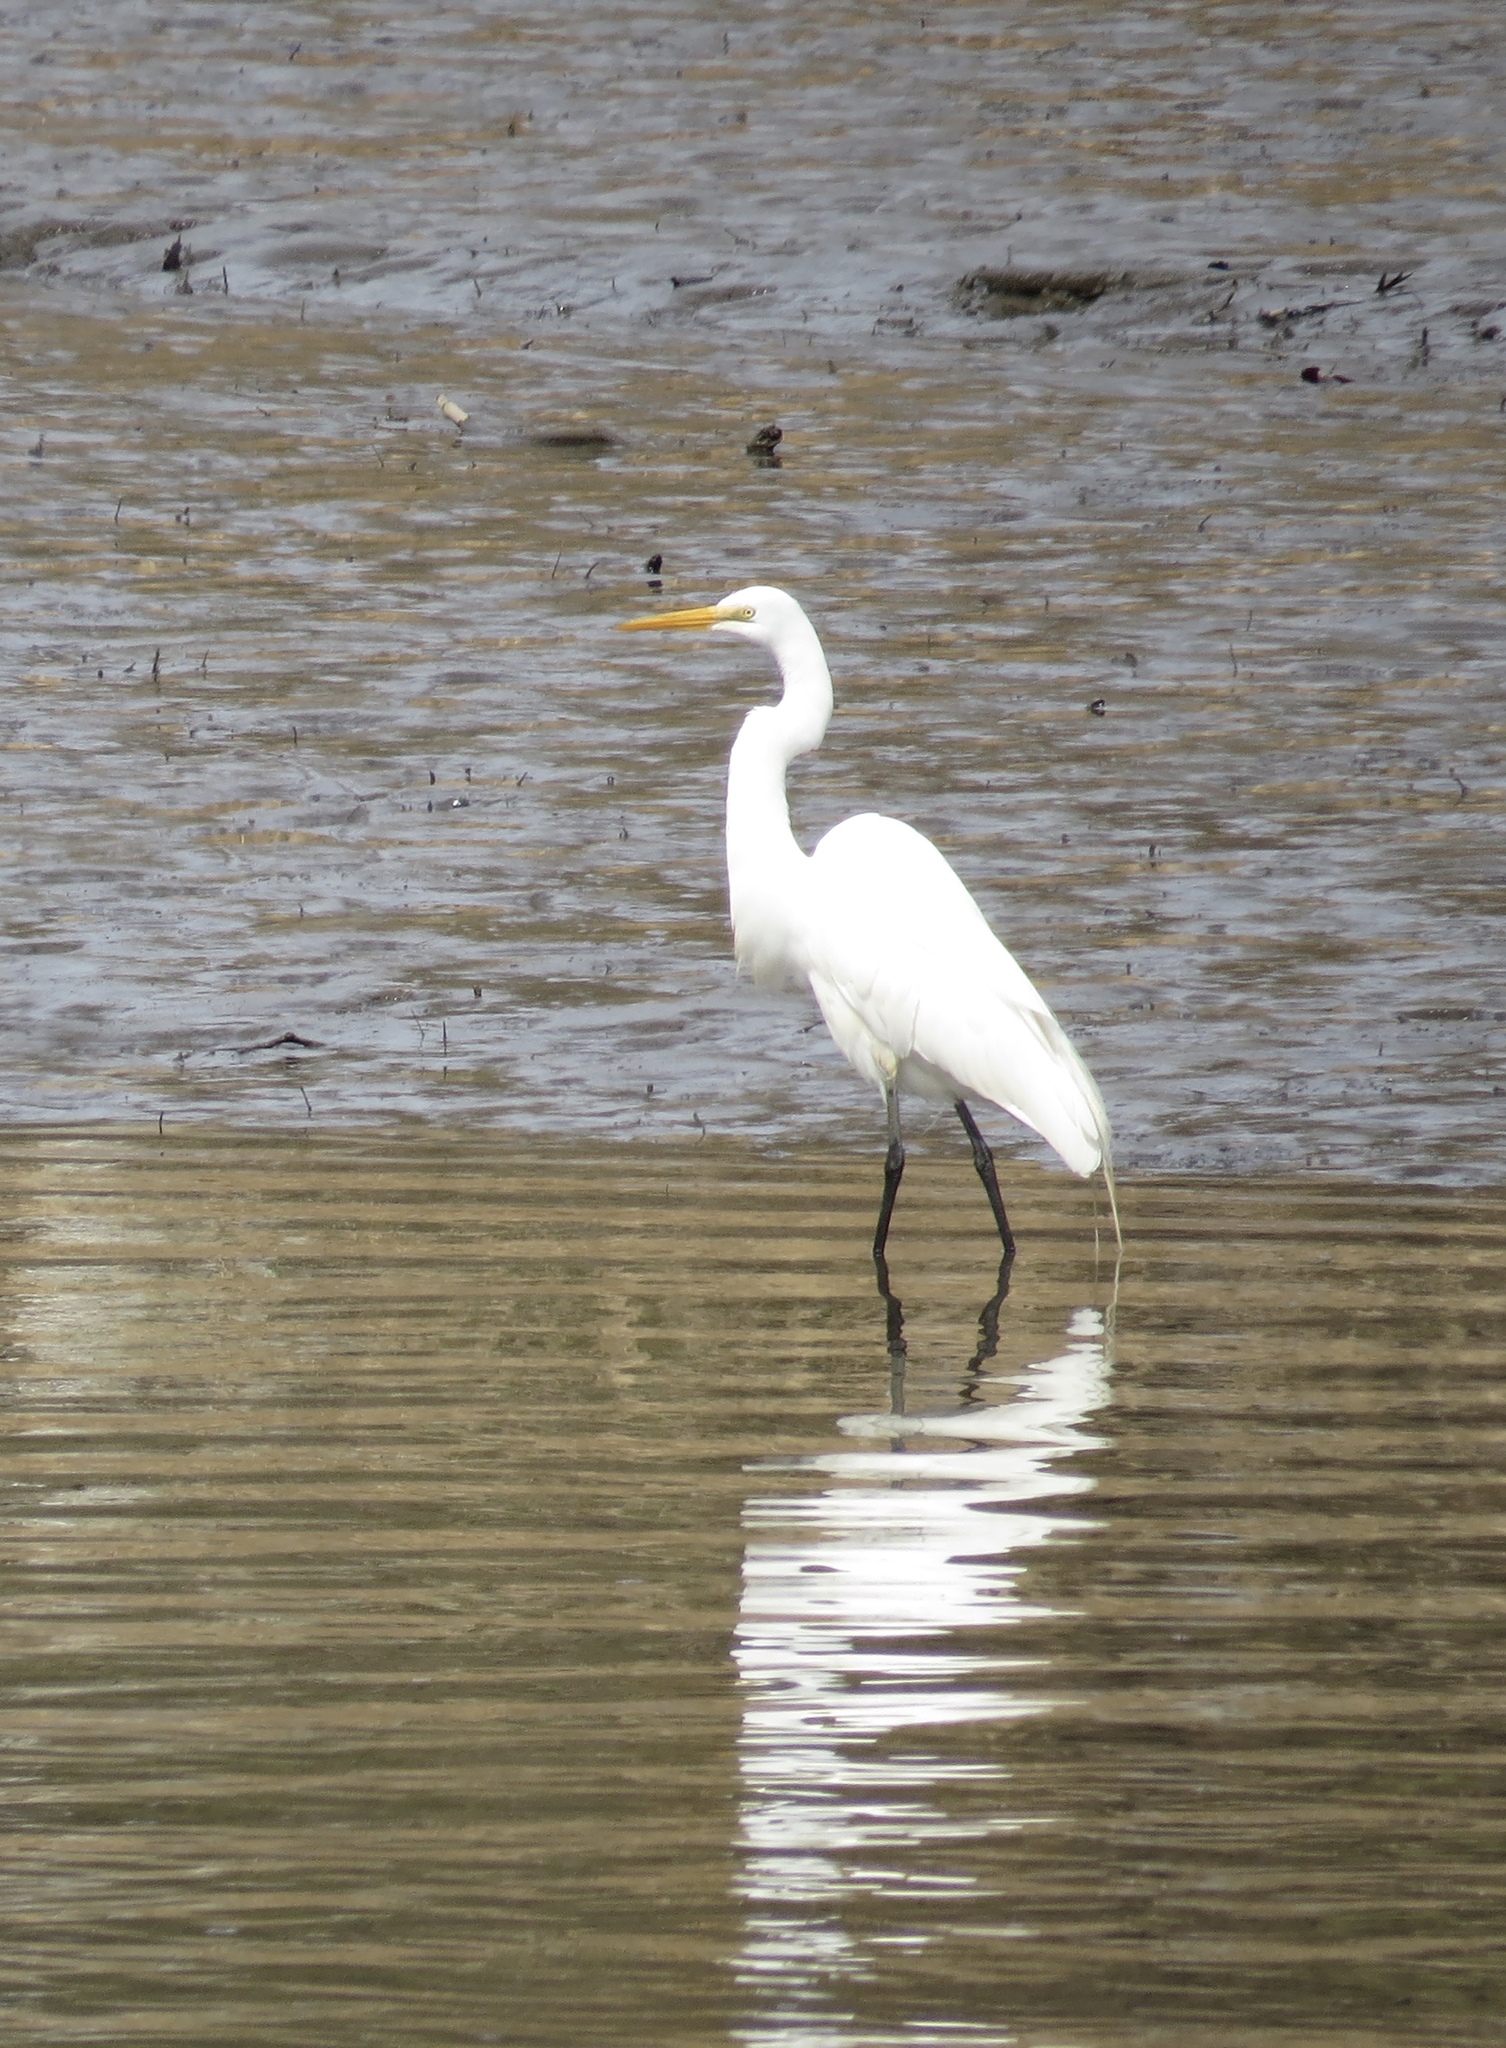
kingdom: Animalia
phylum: Chordata
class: Aves
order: Pelecaniformes
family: Ardeidae
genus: Ardea
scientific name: Ardea alba
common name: Great egret
